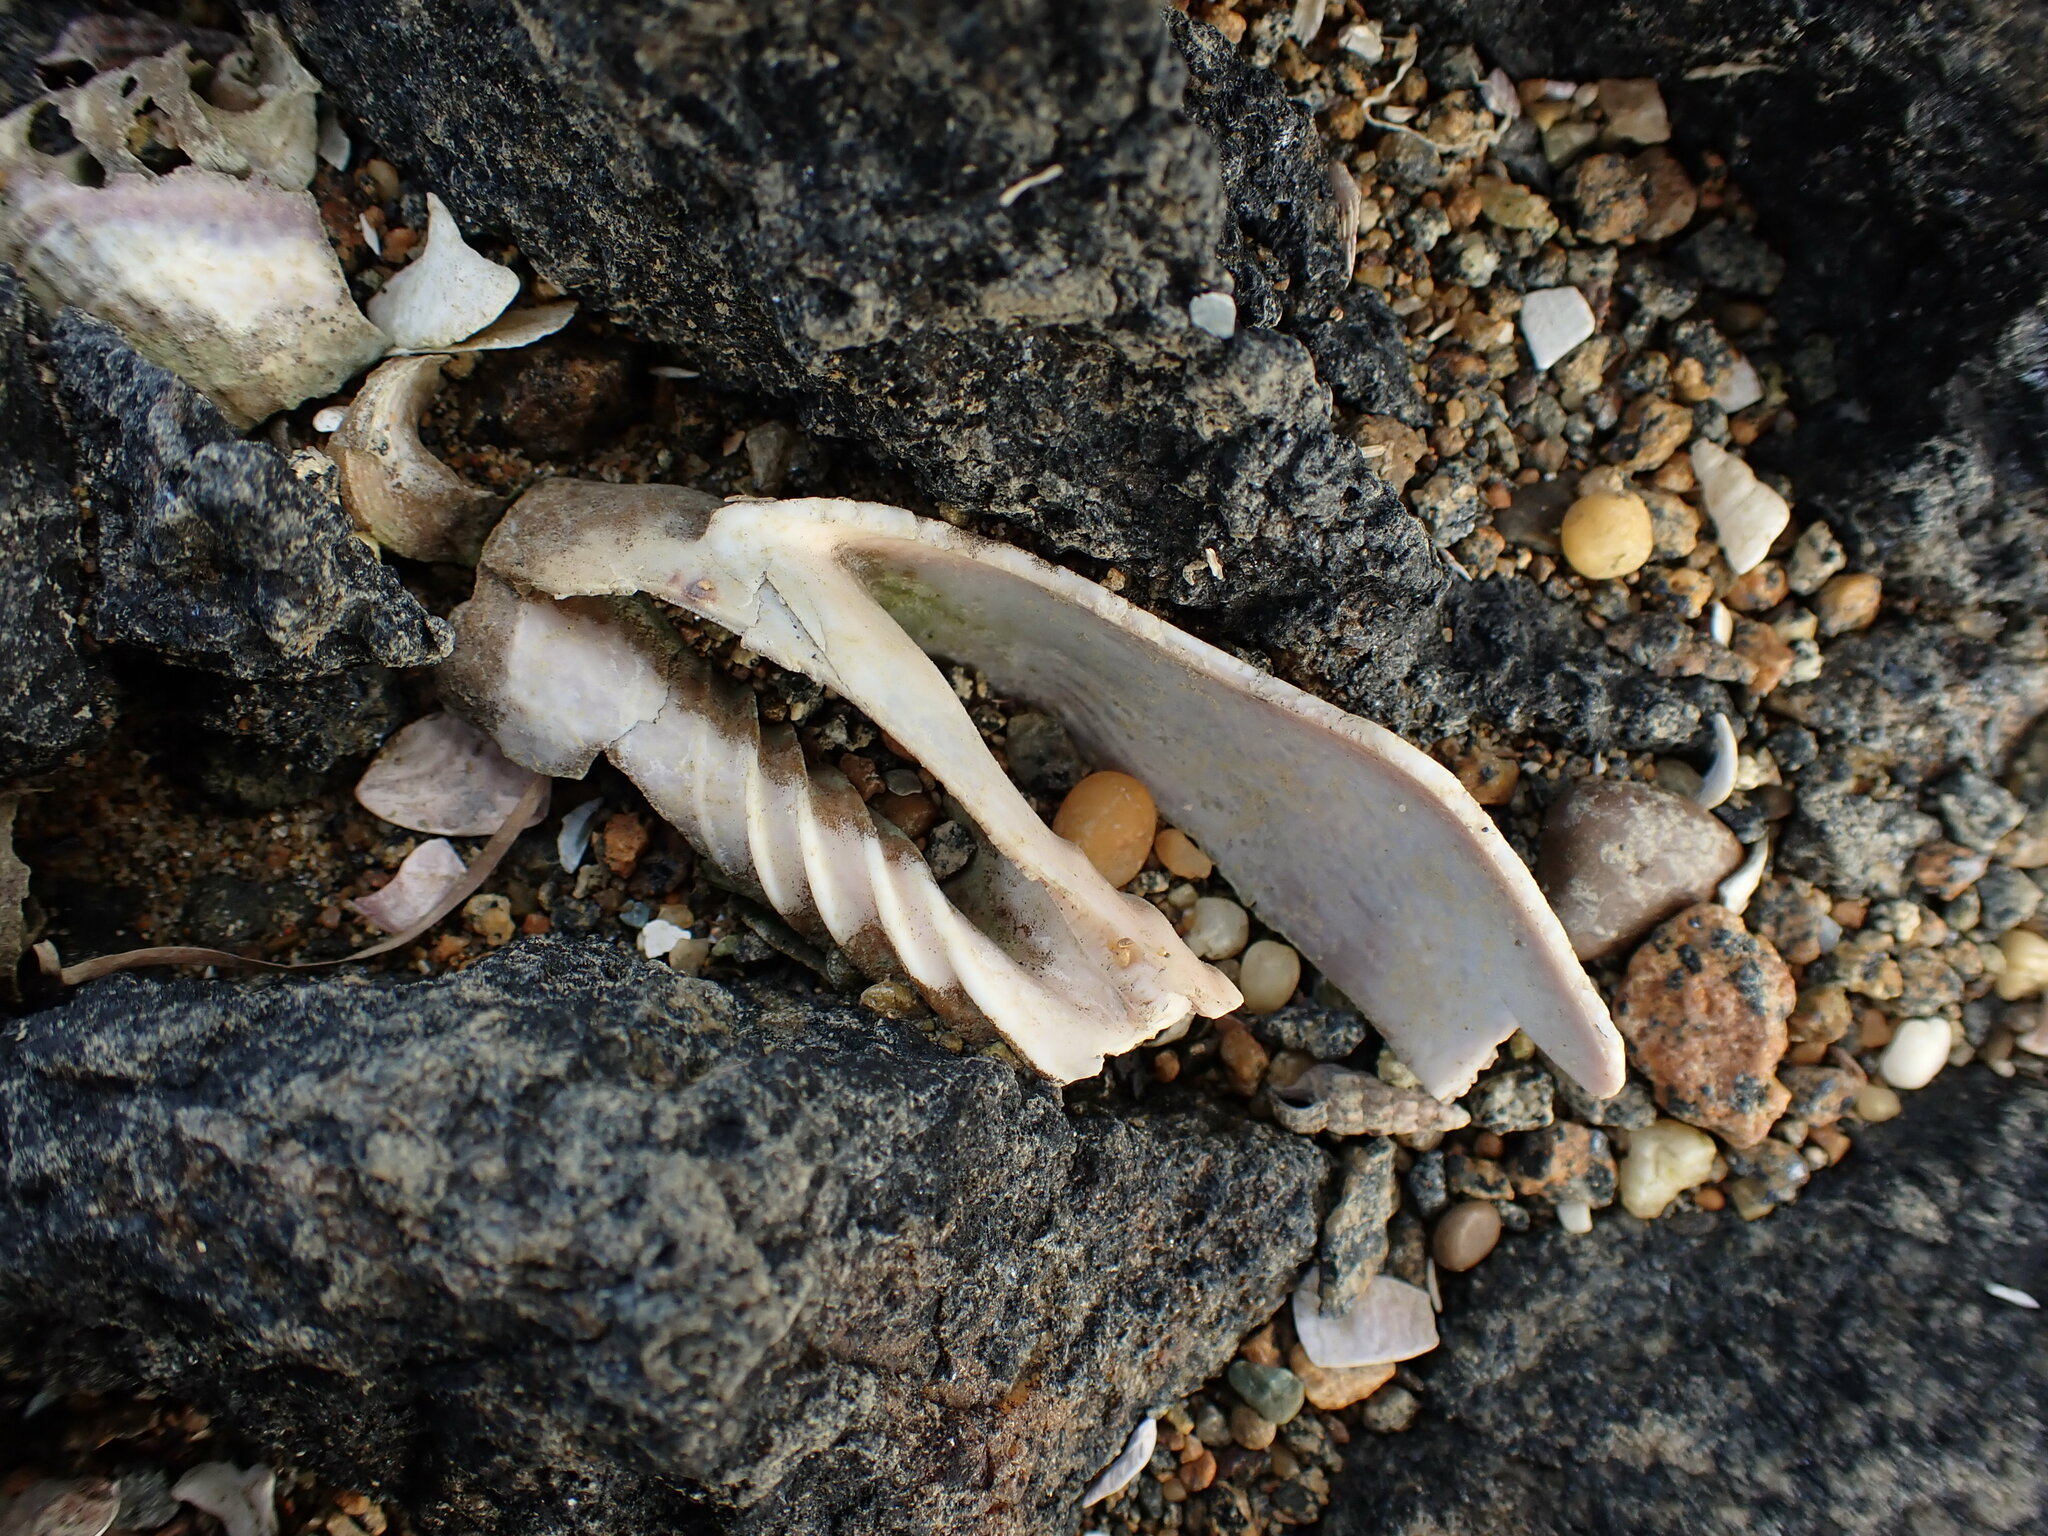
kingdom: Animalia
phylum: Mollusca
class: Gastropoda
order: Neogastropoda
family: Volutidae
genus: Alcithoe
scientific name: Alcithoe arabica
